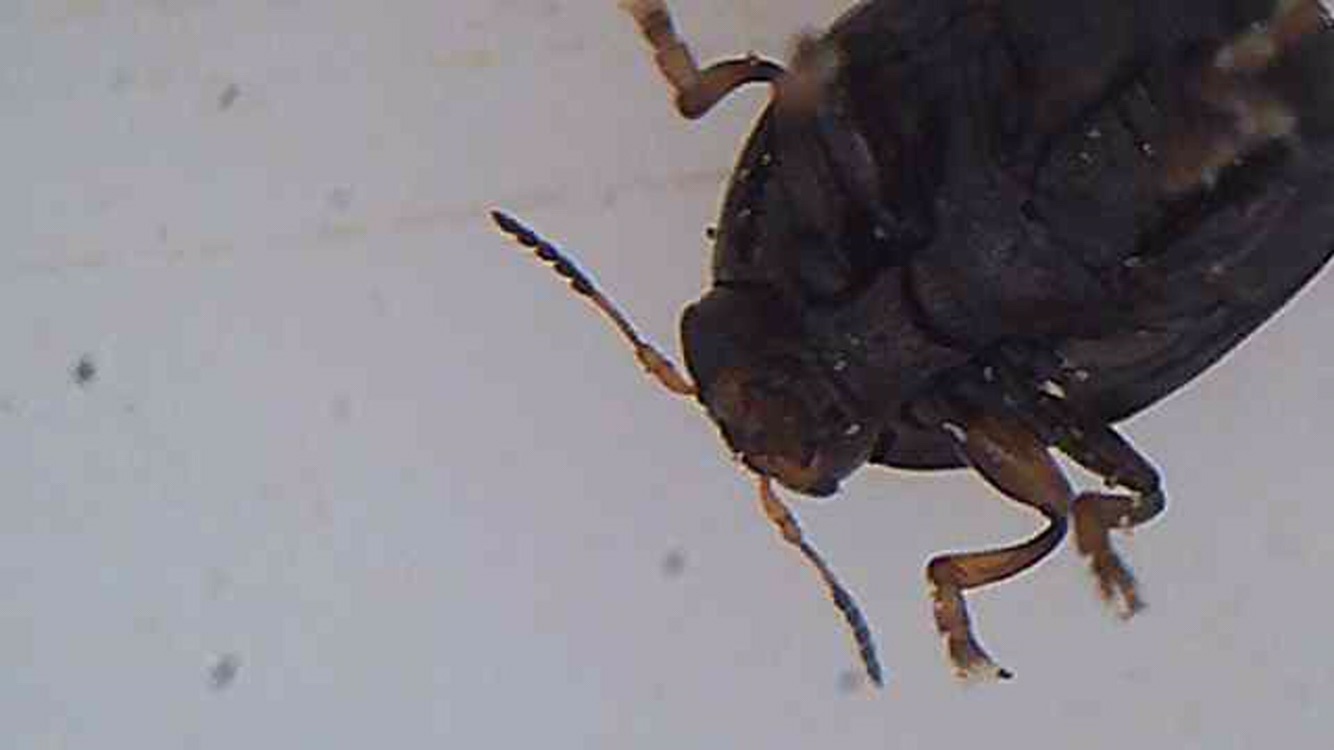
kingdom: Animalia
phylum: Arthropoda
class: Insecta
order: Coleoptera
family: Chrysomelidae
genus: Ditropidus
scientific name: Ditropidus compactus
